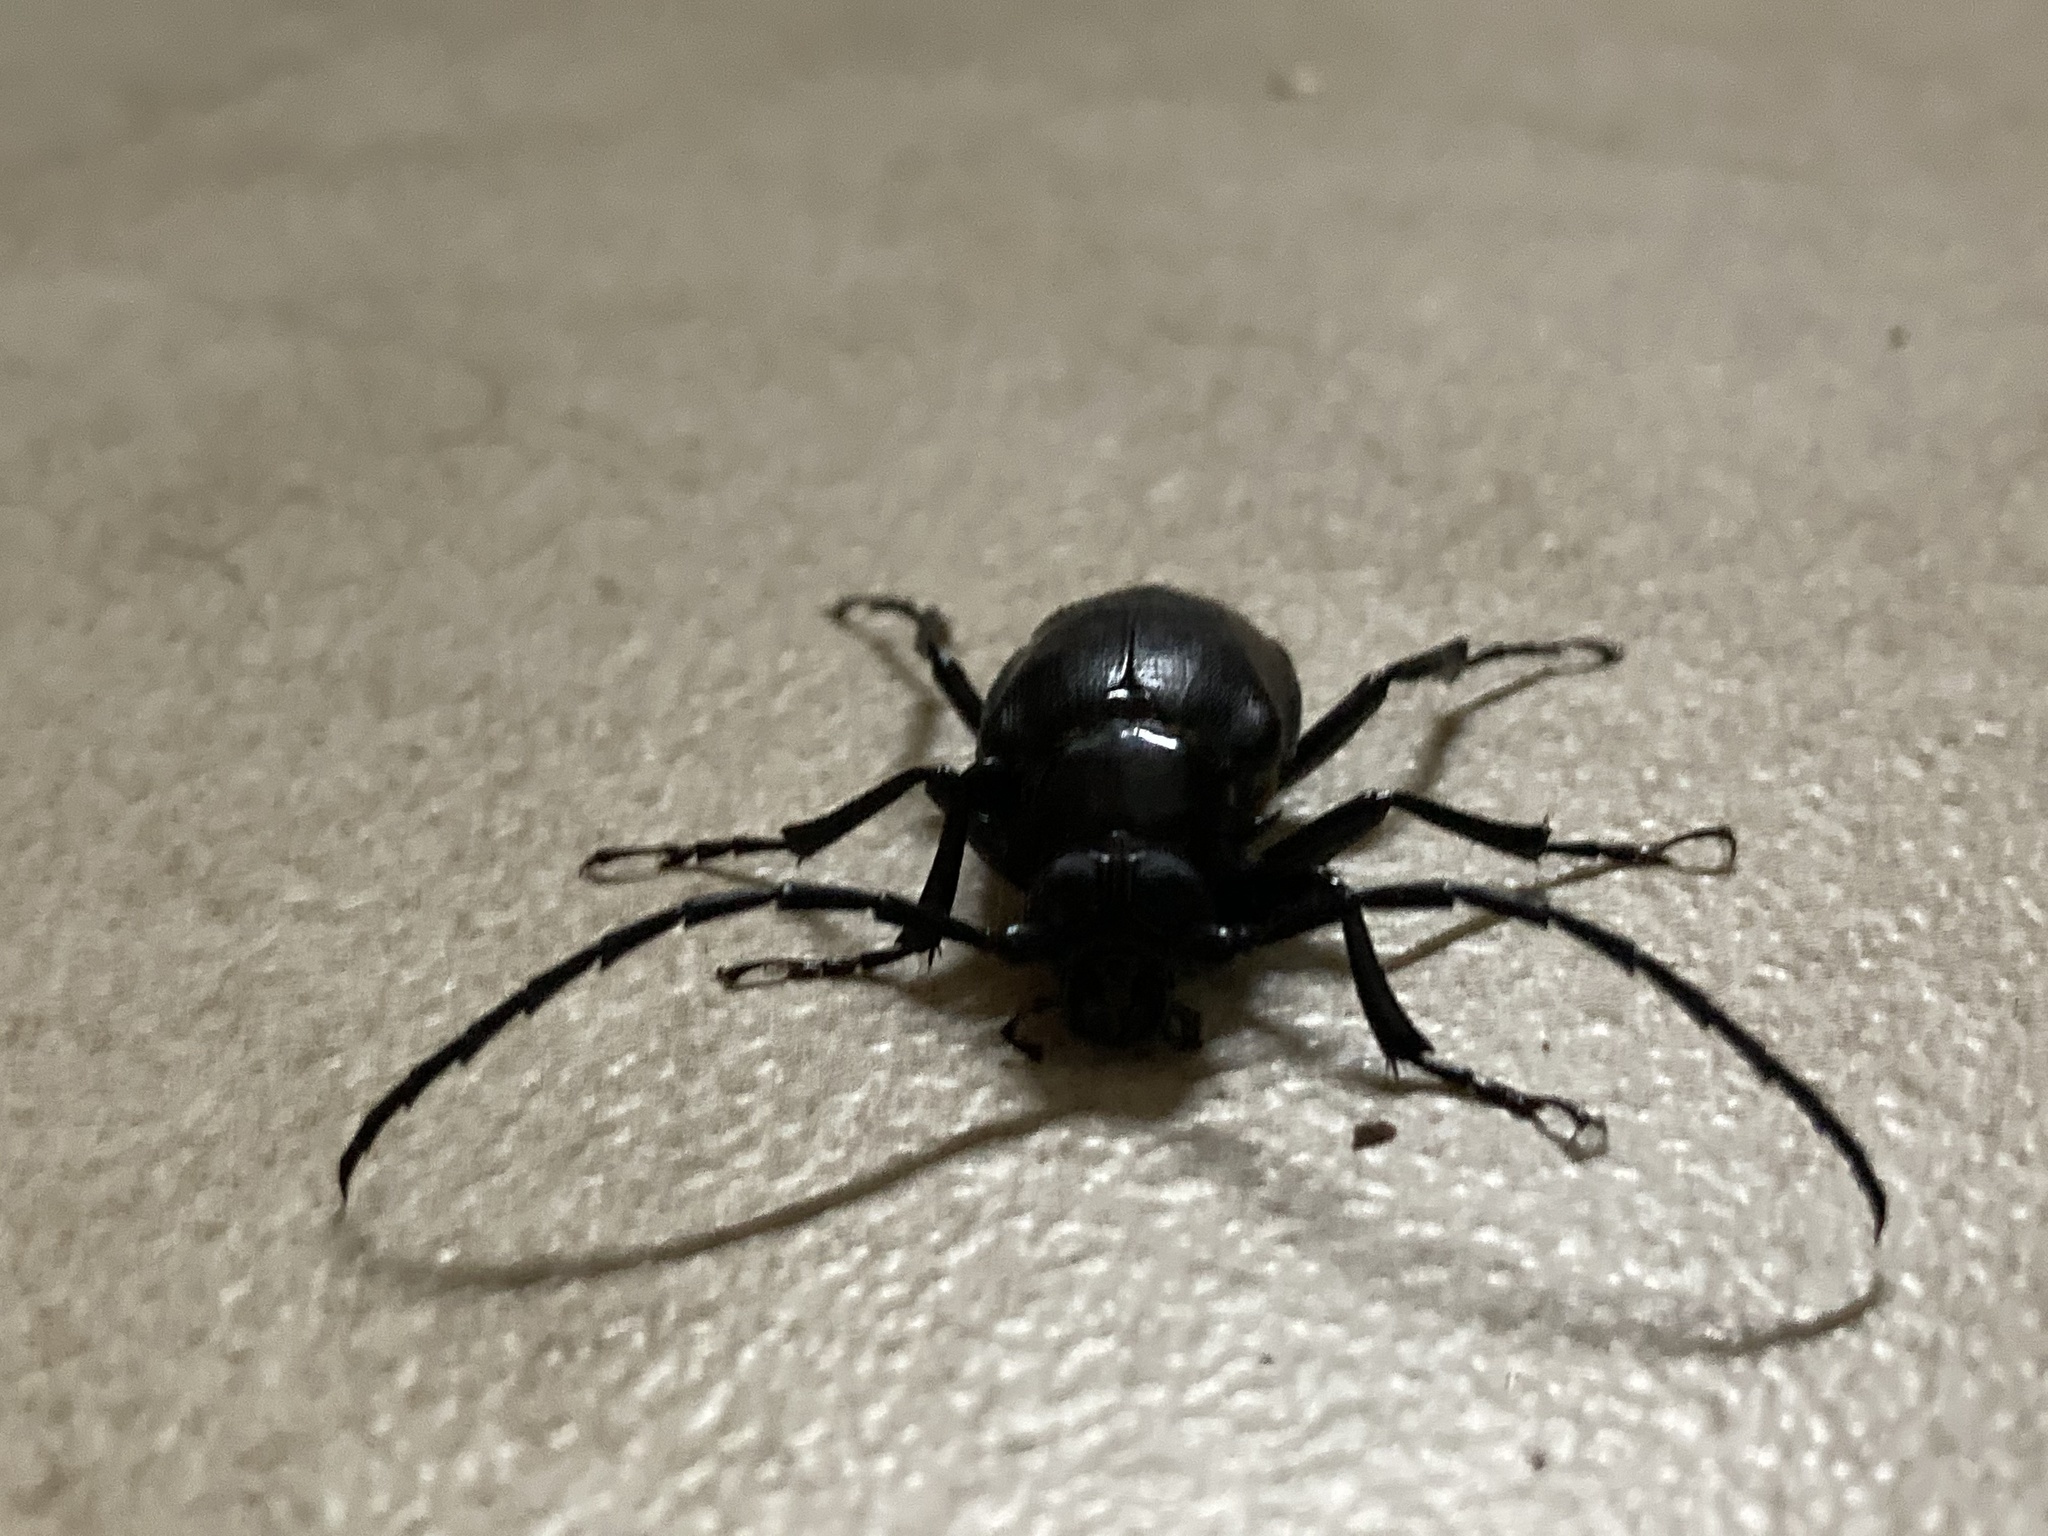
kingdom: Animalia
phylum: Arthropoda
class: Insecta
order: Coleoptera
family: Cerambycidae
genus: Prionomma
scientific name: Prionomma atratum
